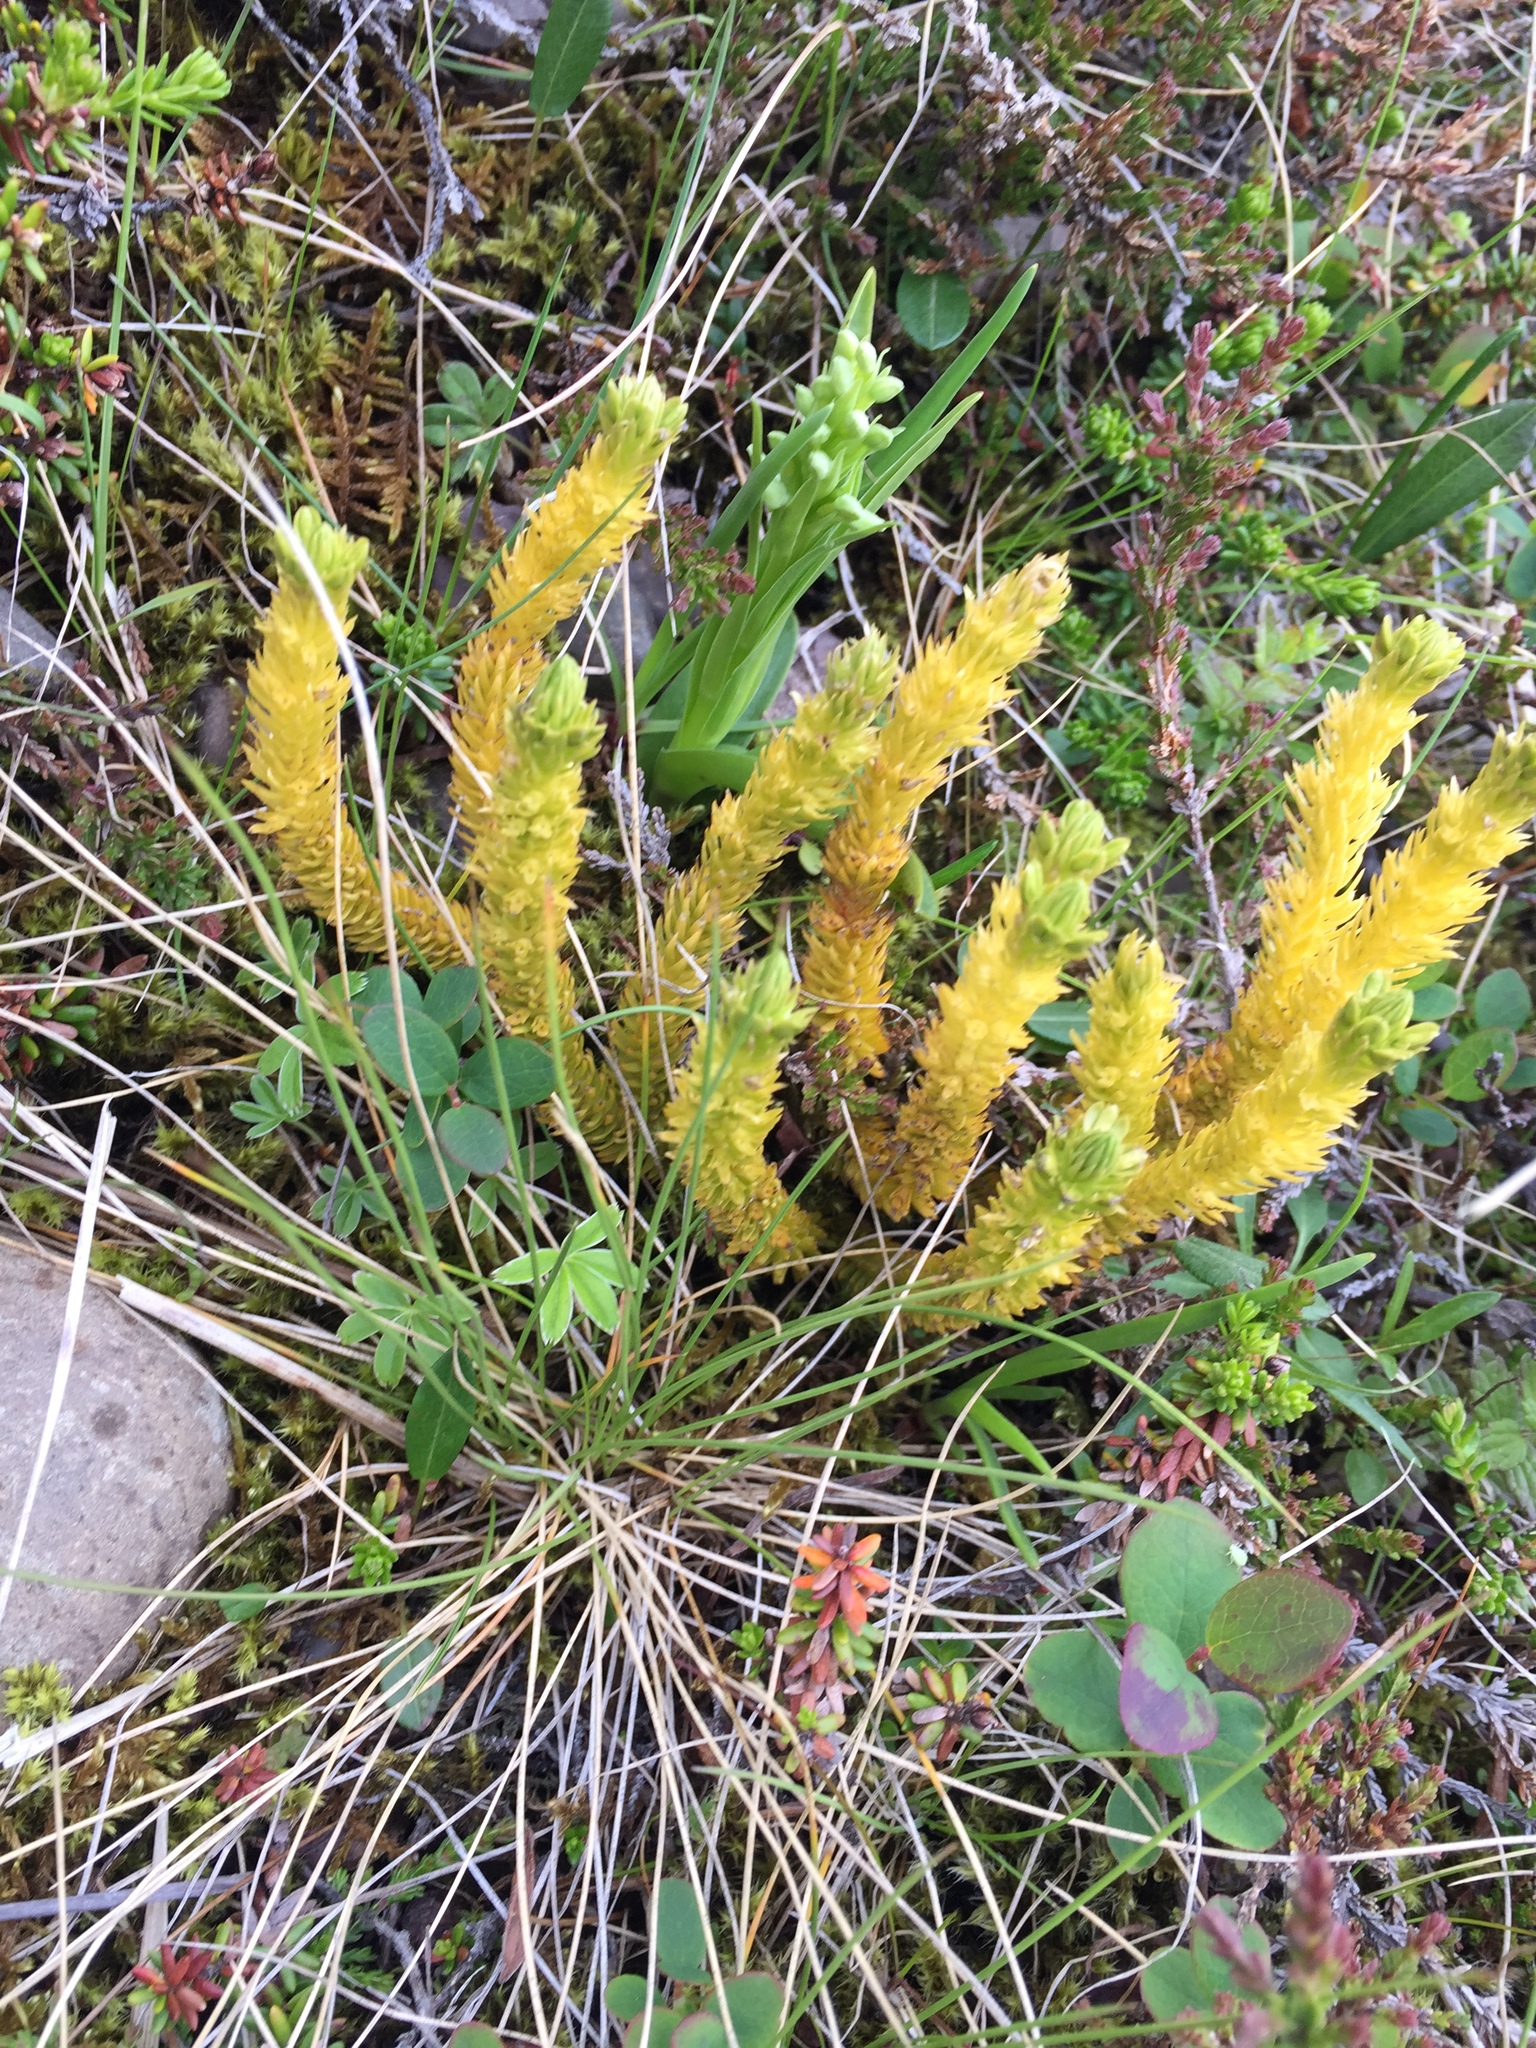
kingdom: Plantae
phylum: Tracheophyta
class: Lycopodiopsida
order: Lycopodiales
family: Lycopodiaceae
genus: Huperzia
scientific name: Huperzia selago
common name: Northern firmoss
